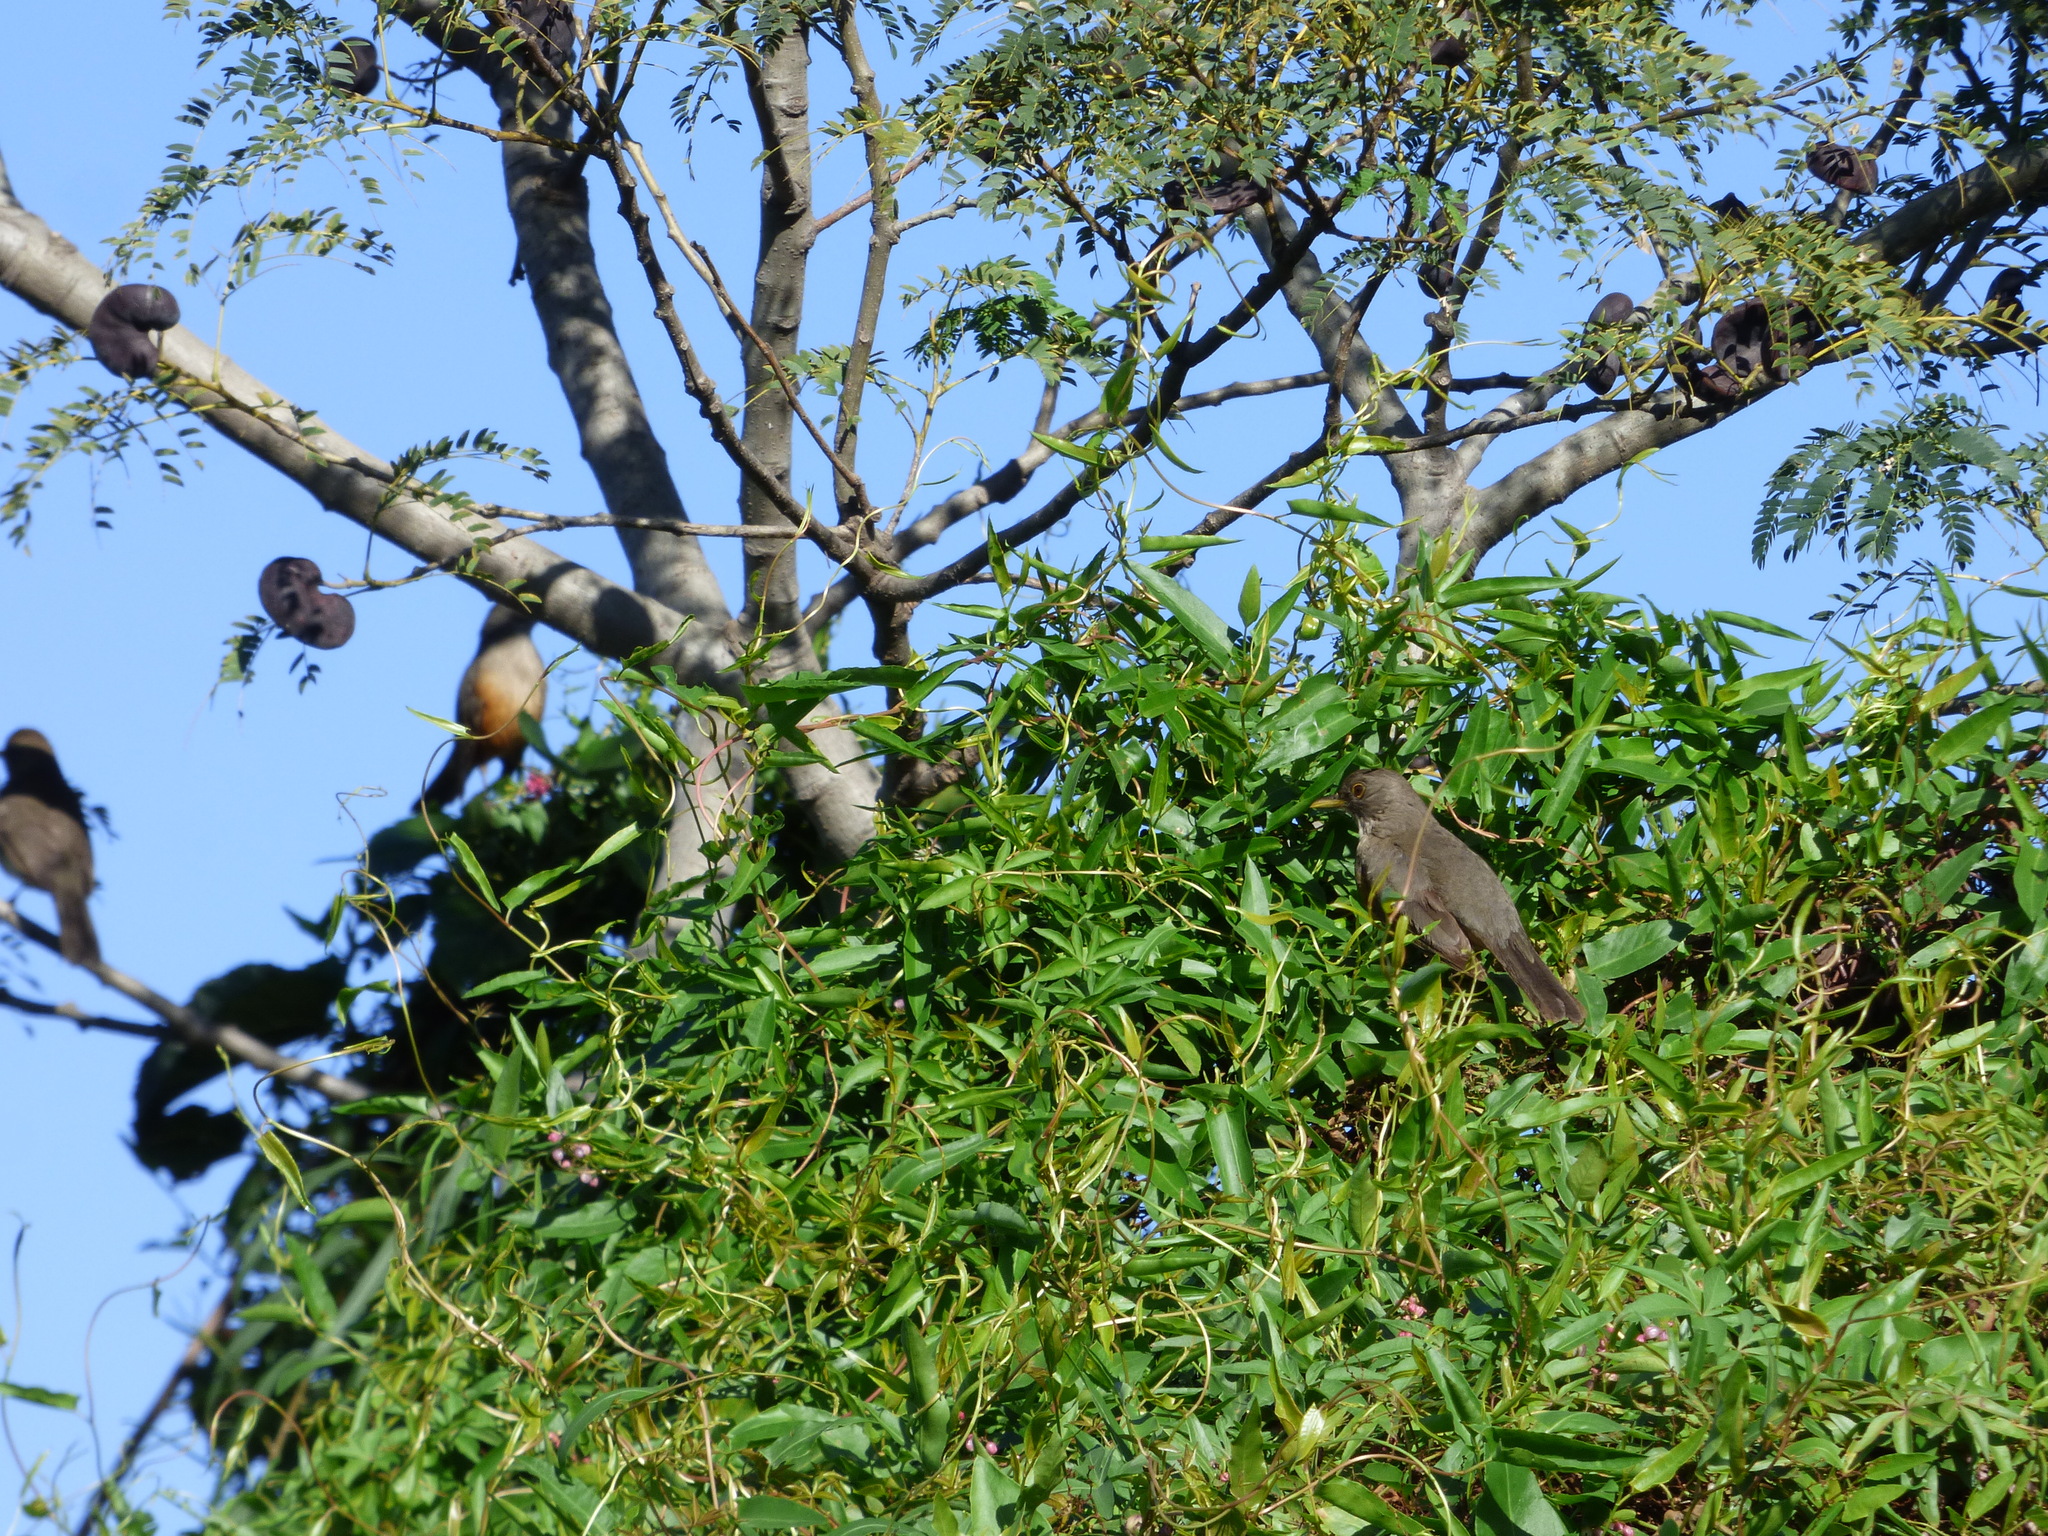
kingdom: Animalia
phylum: Chordata
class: Aves
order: Passeriformes
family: Turdidae
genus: Turdus
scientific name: Turdus rufiventris
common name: Rufous-bellied thrush
